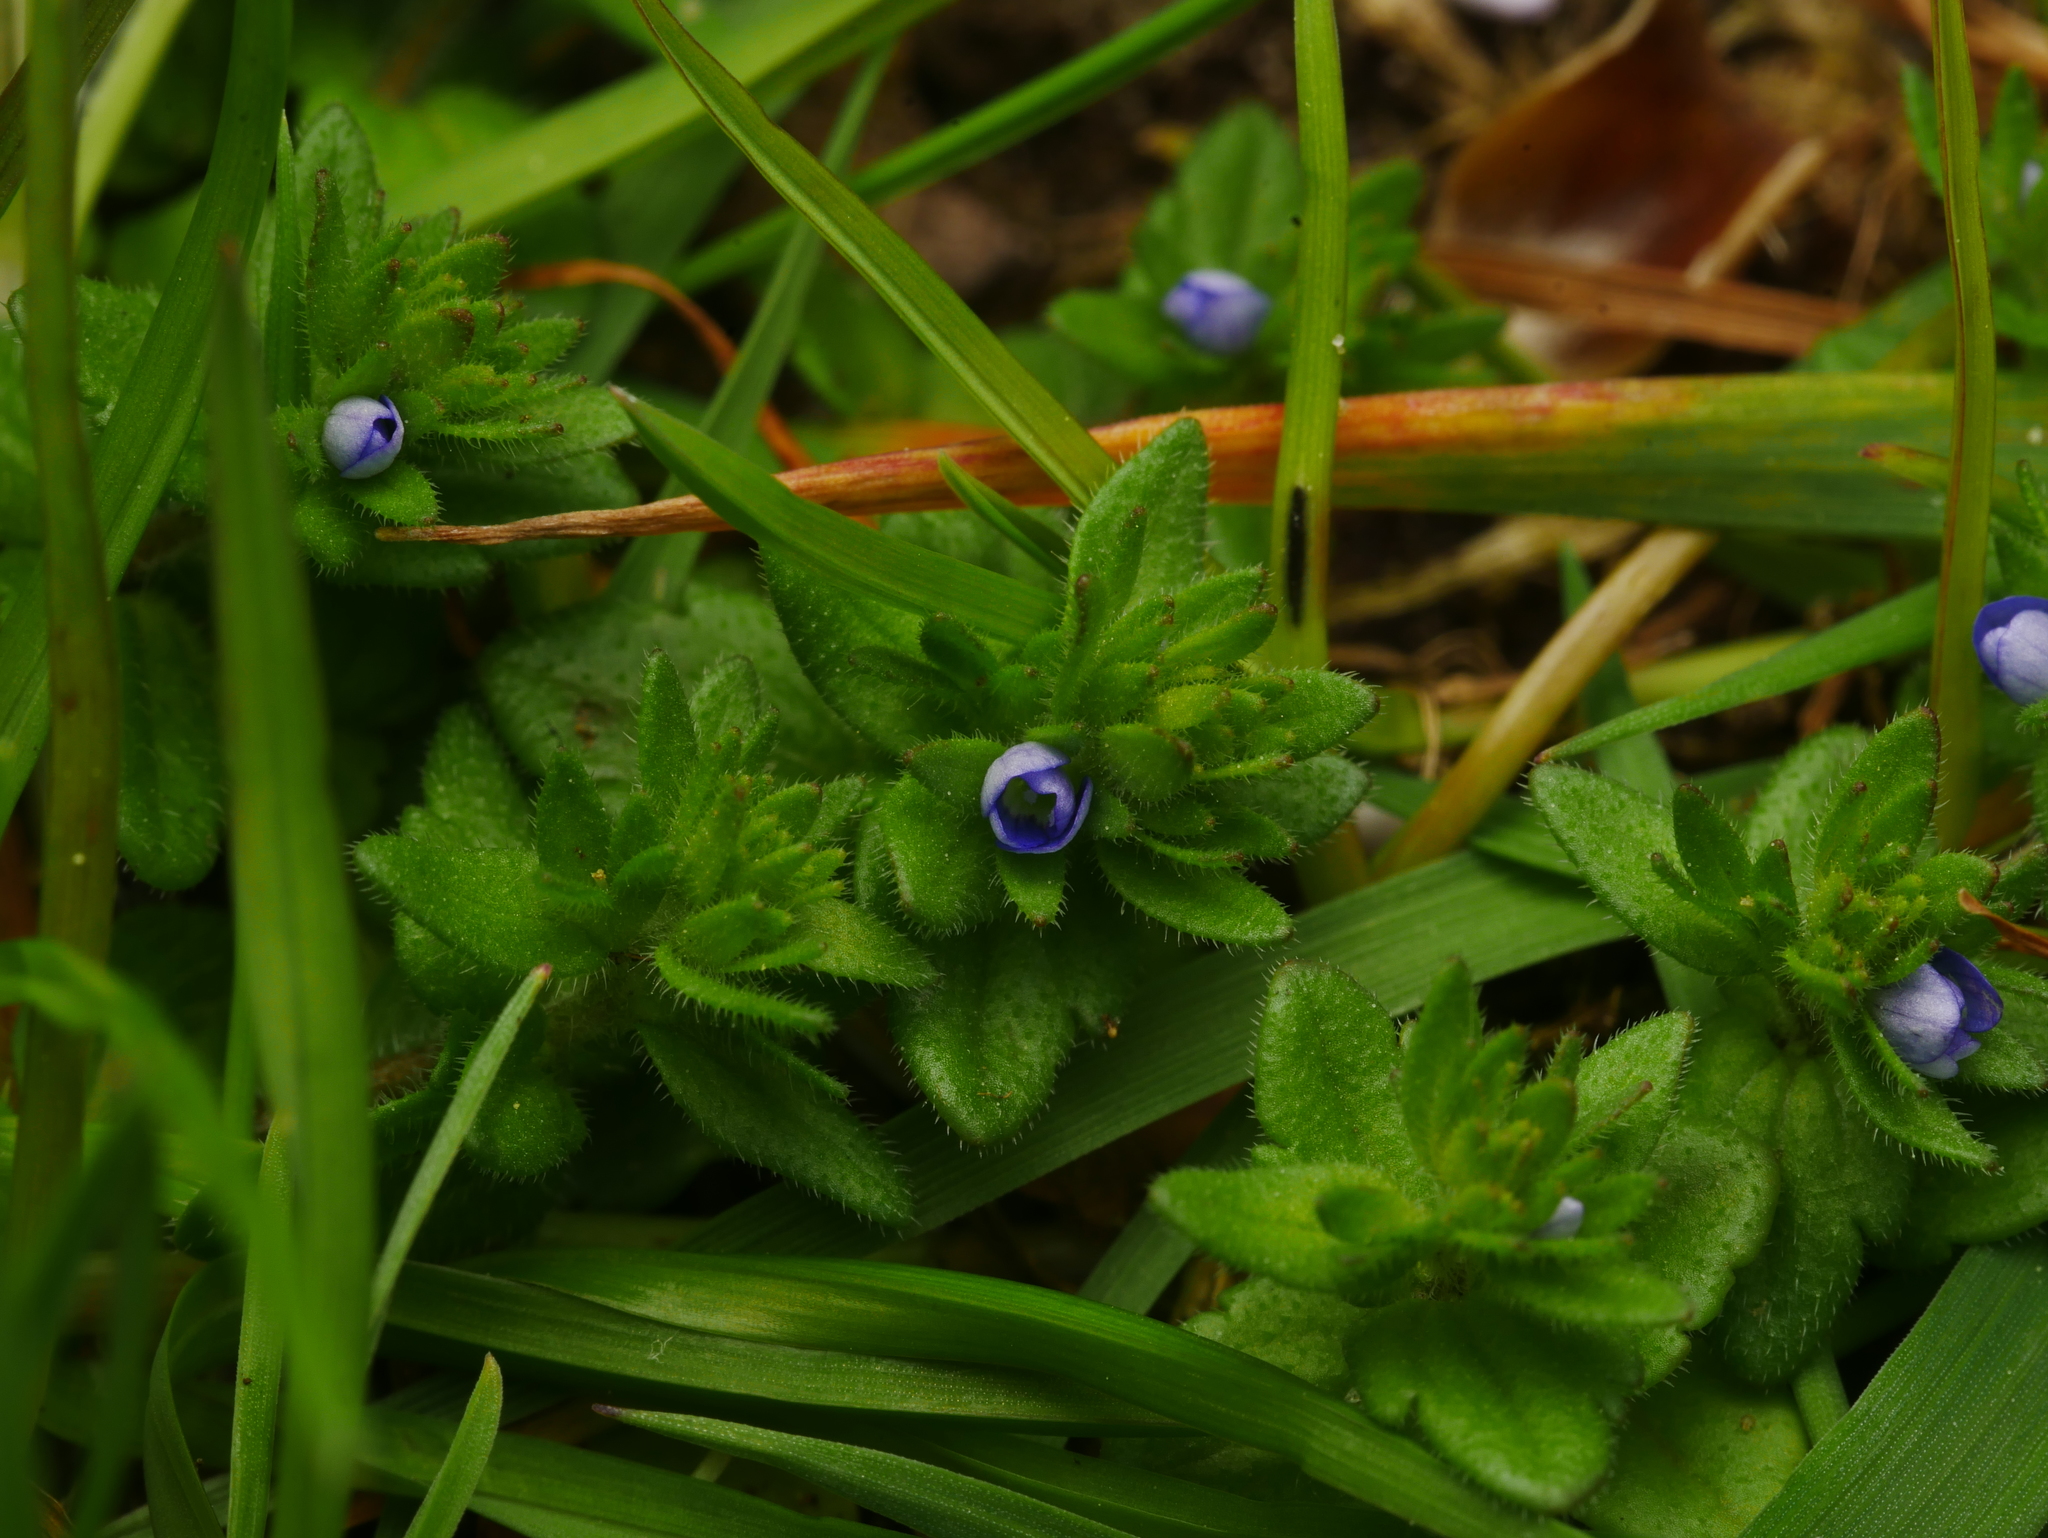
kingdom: Plantae
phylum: Tracheophyta
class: Magnoliopsida
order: Lamiales
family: Plantaginaceae
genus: Veronica
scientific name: Veronica arvensis
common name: Corn speedwell
